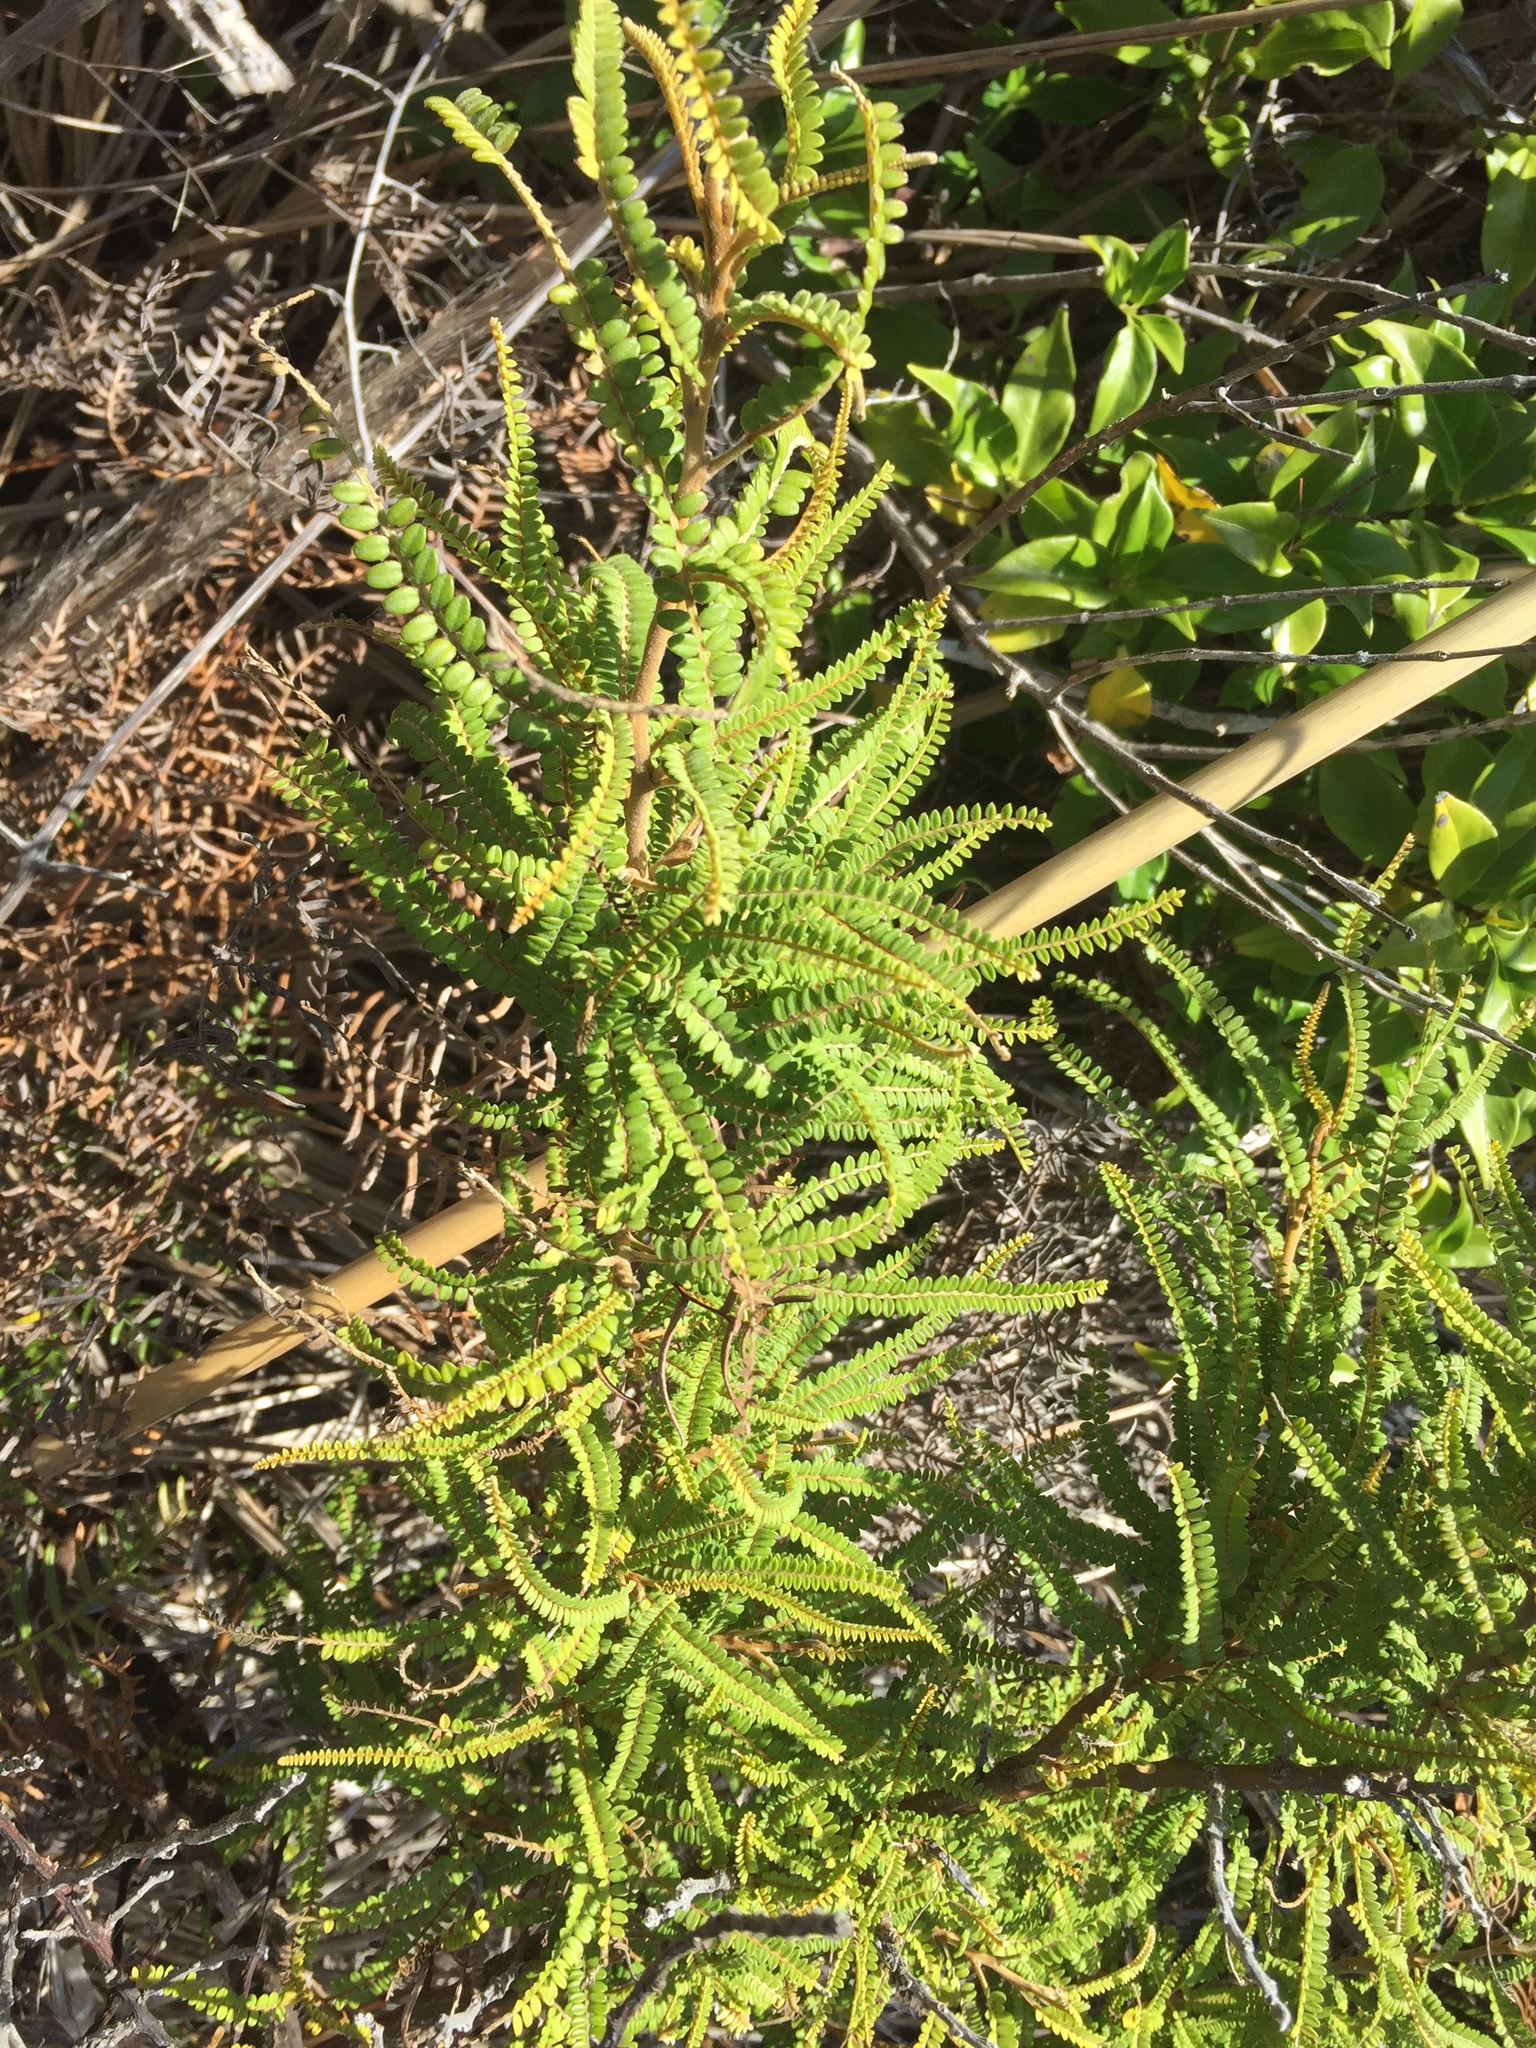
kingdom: Plantae
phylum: Tracheophyta
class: Magnoliopsida
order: Fabales
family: Fabaceae
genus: Sophora
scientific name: Sophora fulvida
